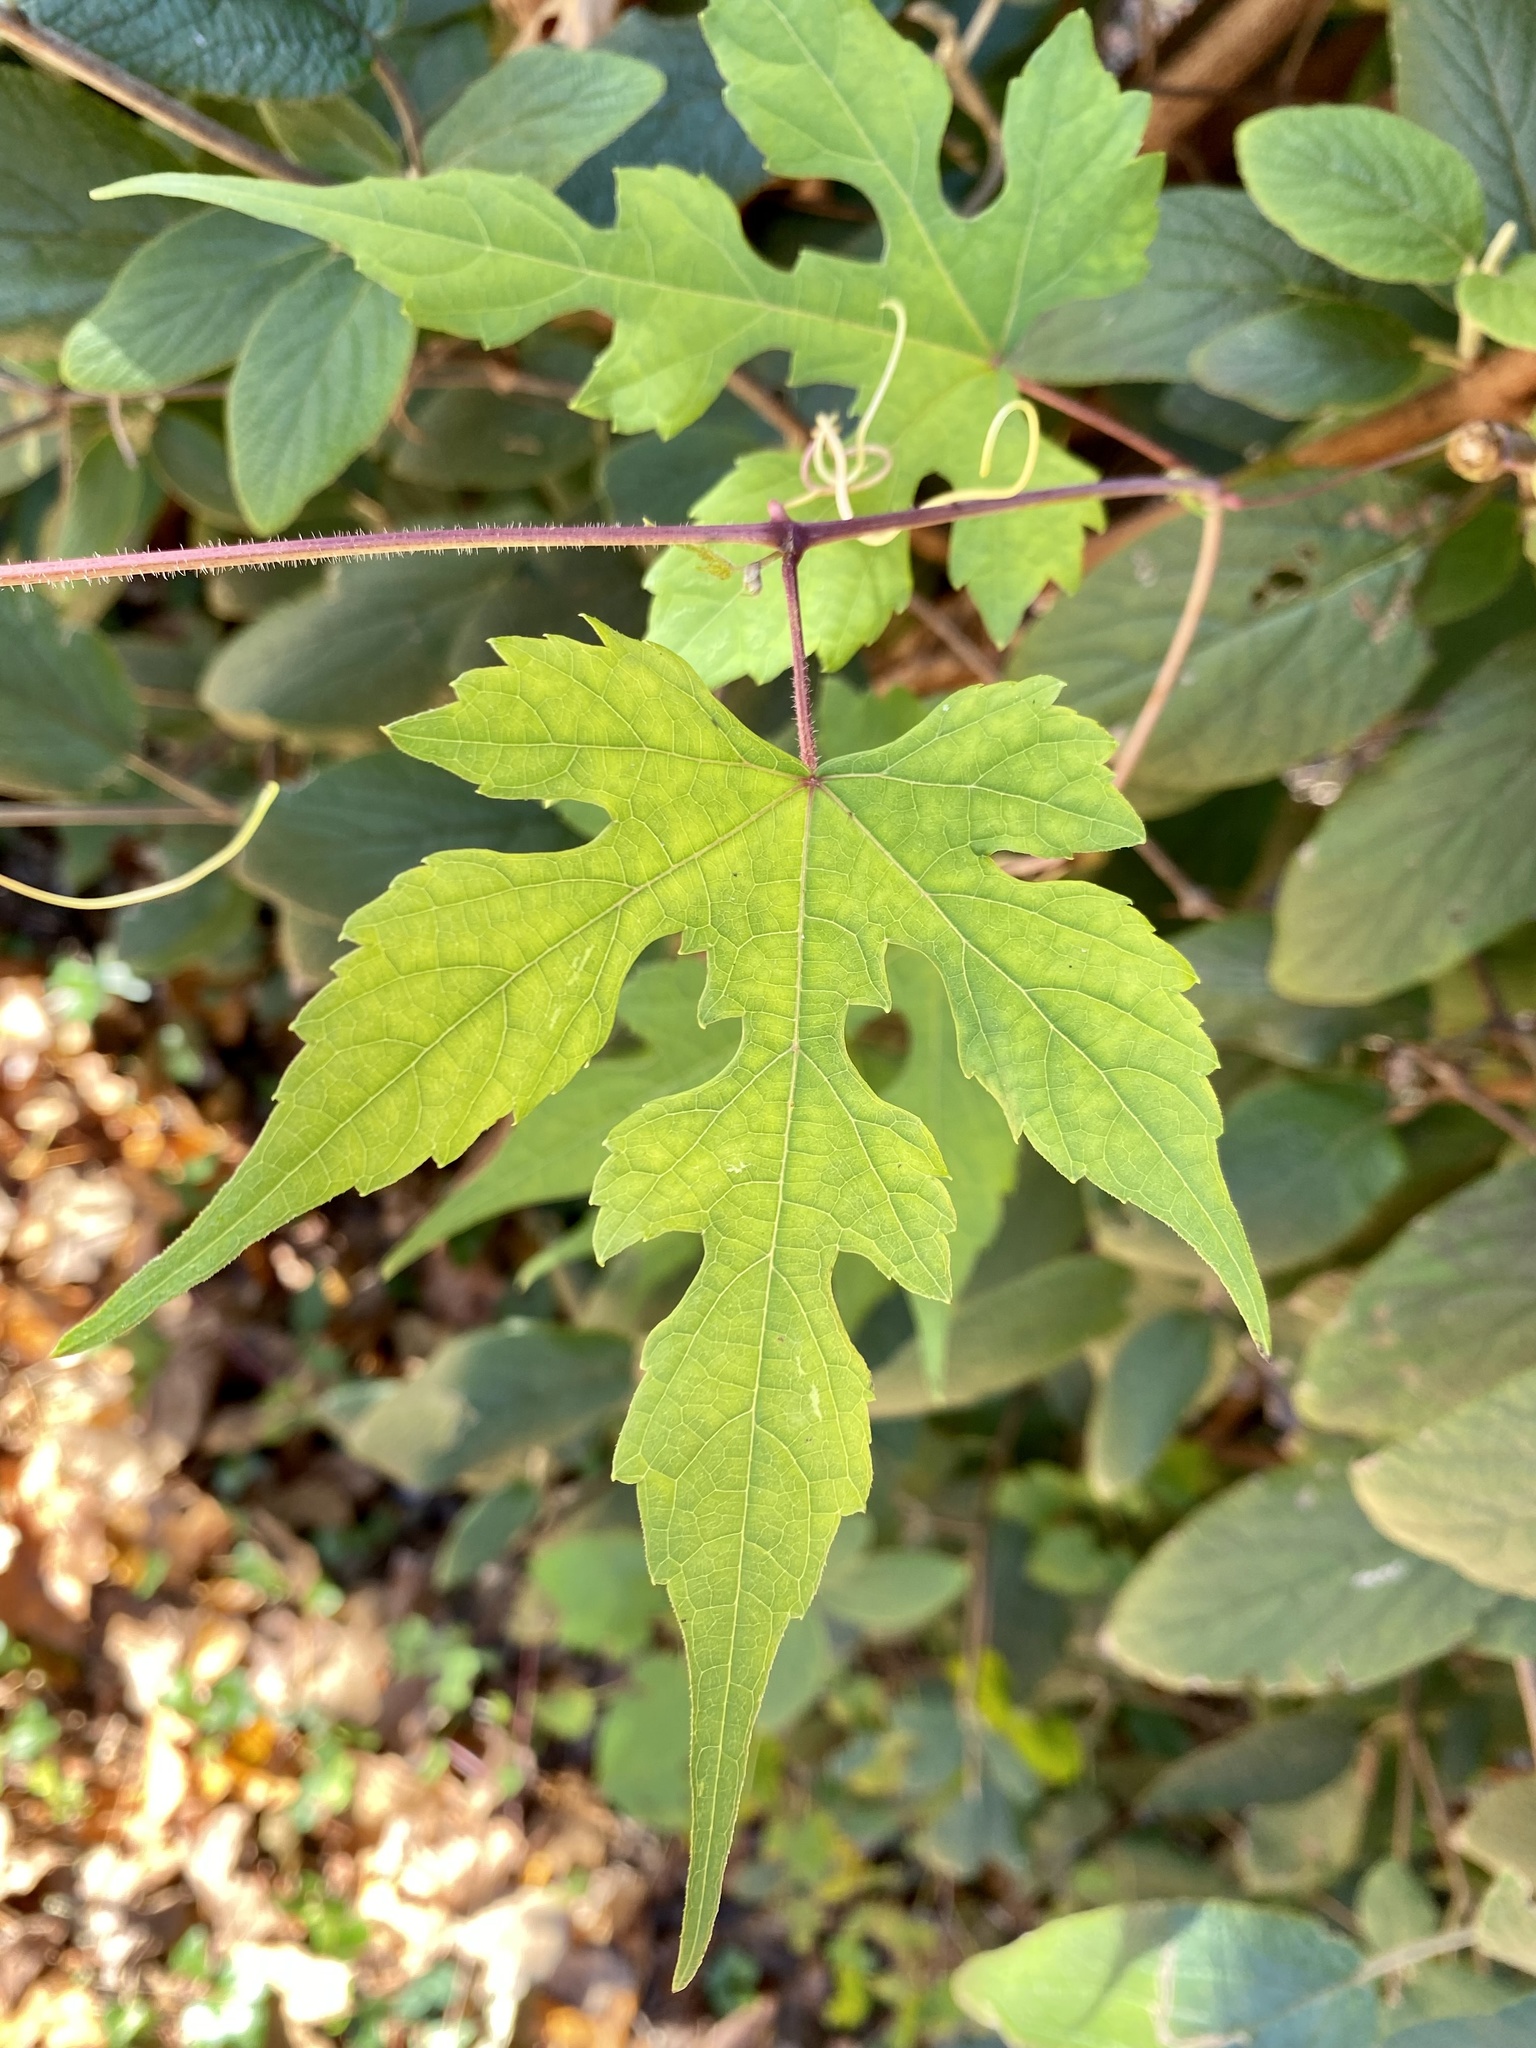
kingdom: Plantae
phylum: Tracheophyta
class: Magnoliopsida
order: Vitales
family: Vitaceae
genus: Ampelopsis
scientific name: Ampelopsis glandulosa
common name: Amur peppervine
